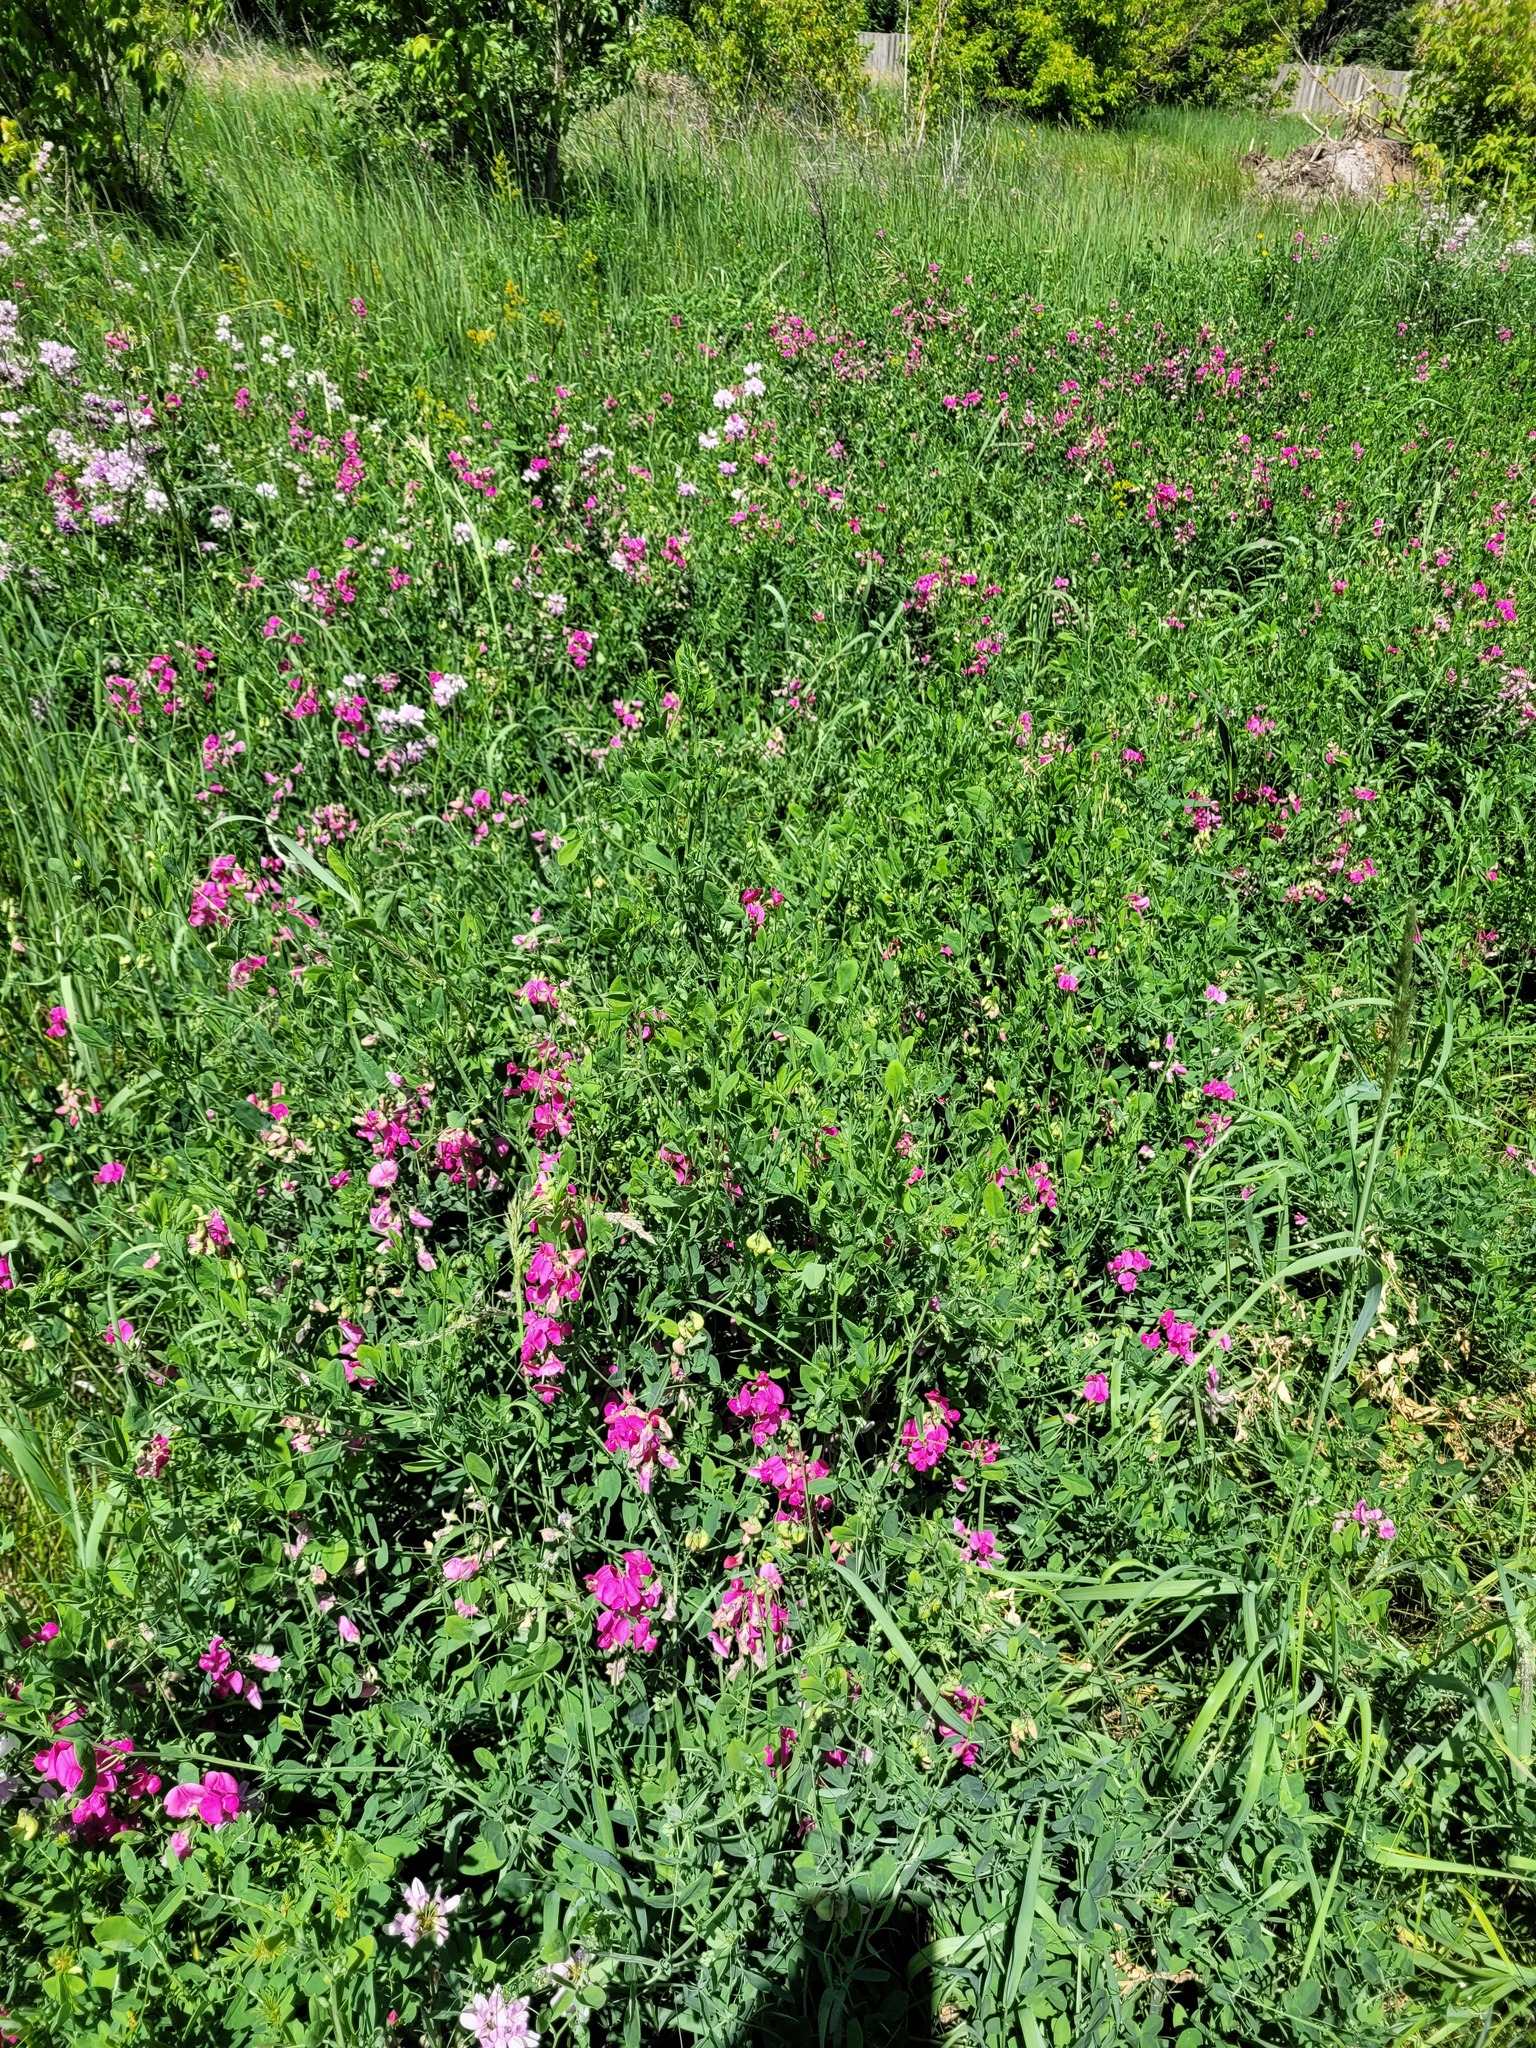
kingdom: Plantae
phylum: Tracheophyta
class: Magnoliopsida
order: Fabales
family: Fabaceae
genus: Lathyrus
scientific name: Lathyrus tuberosus
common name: Tuberous pea
